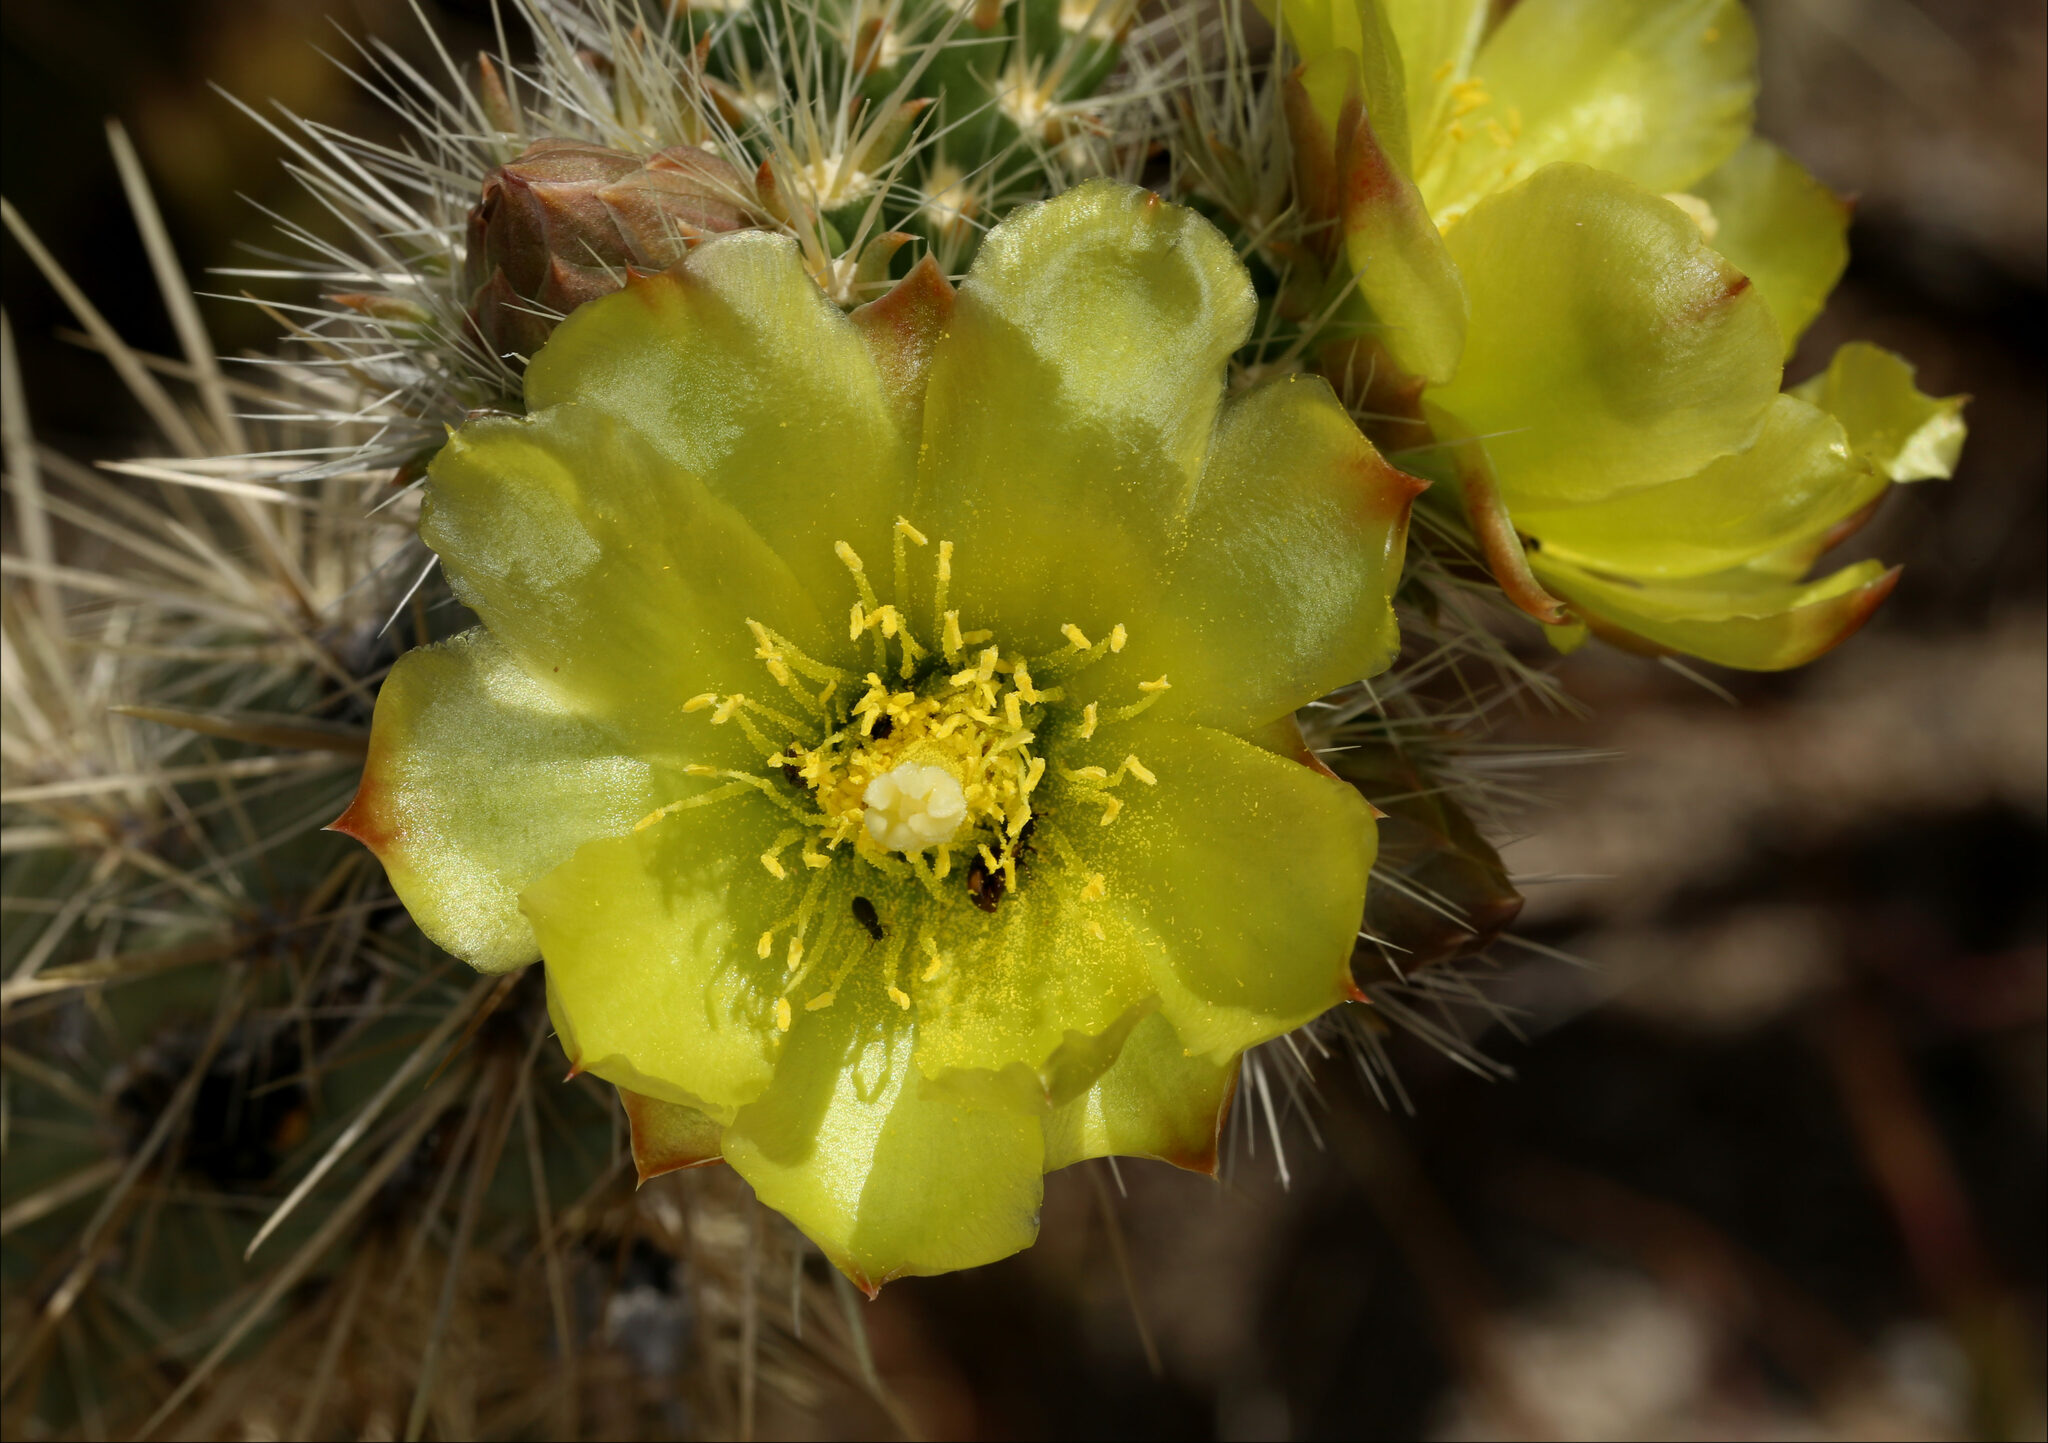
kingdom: Plantae
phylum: Tracheophyta
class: Magnoliopsida
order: Caryophyllales
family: Cactaceae
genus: Cylindropuntia
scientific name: Cylindropuntia ganderi
